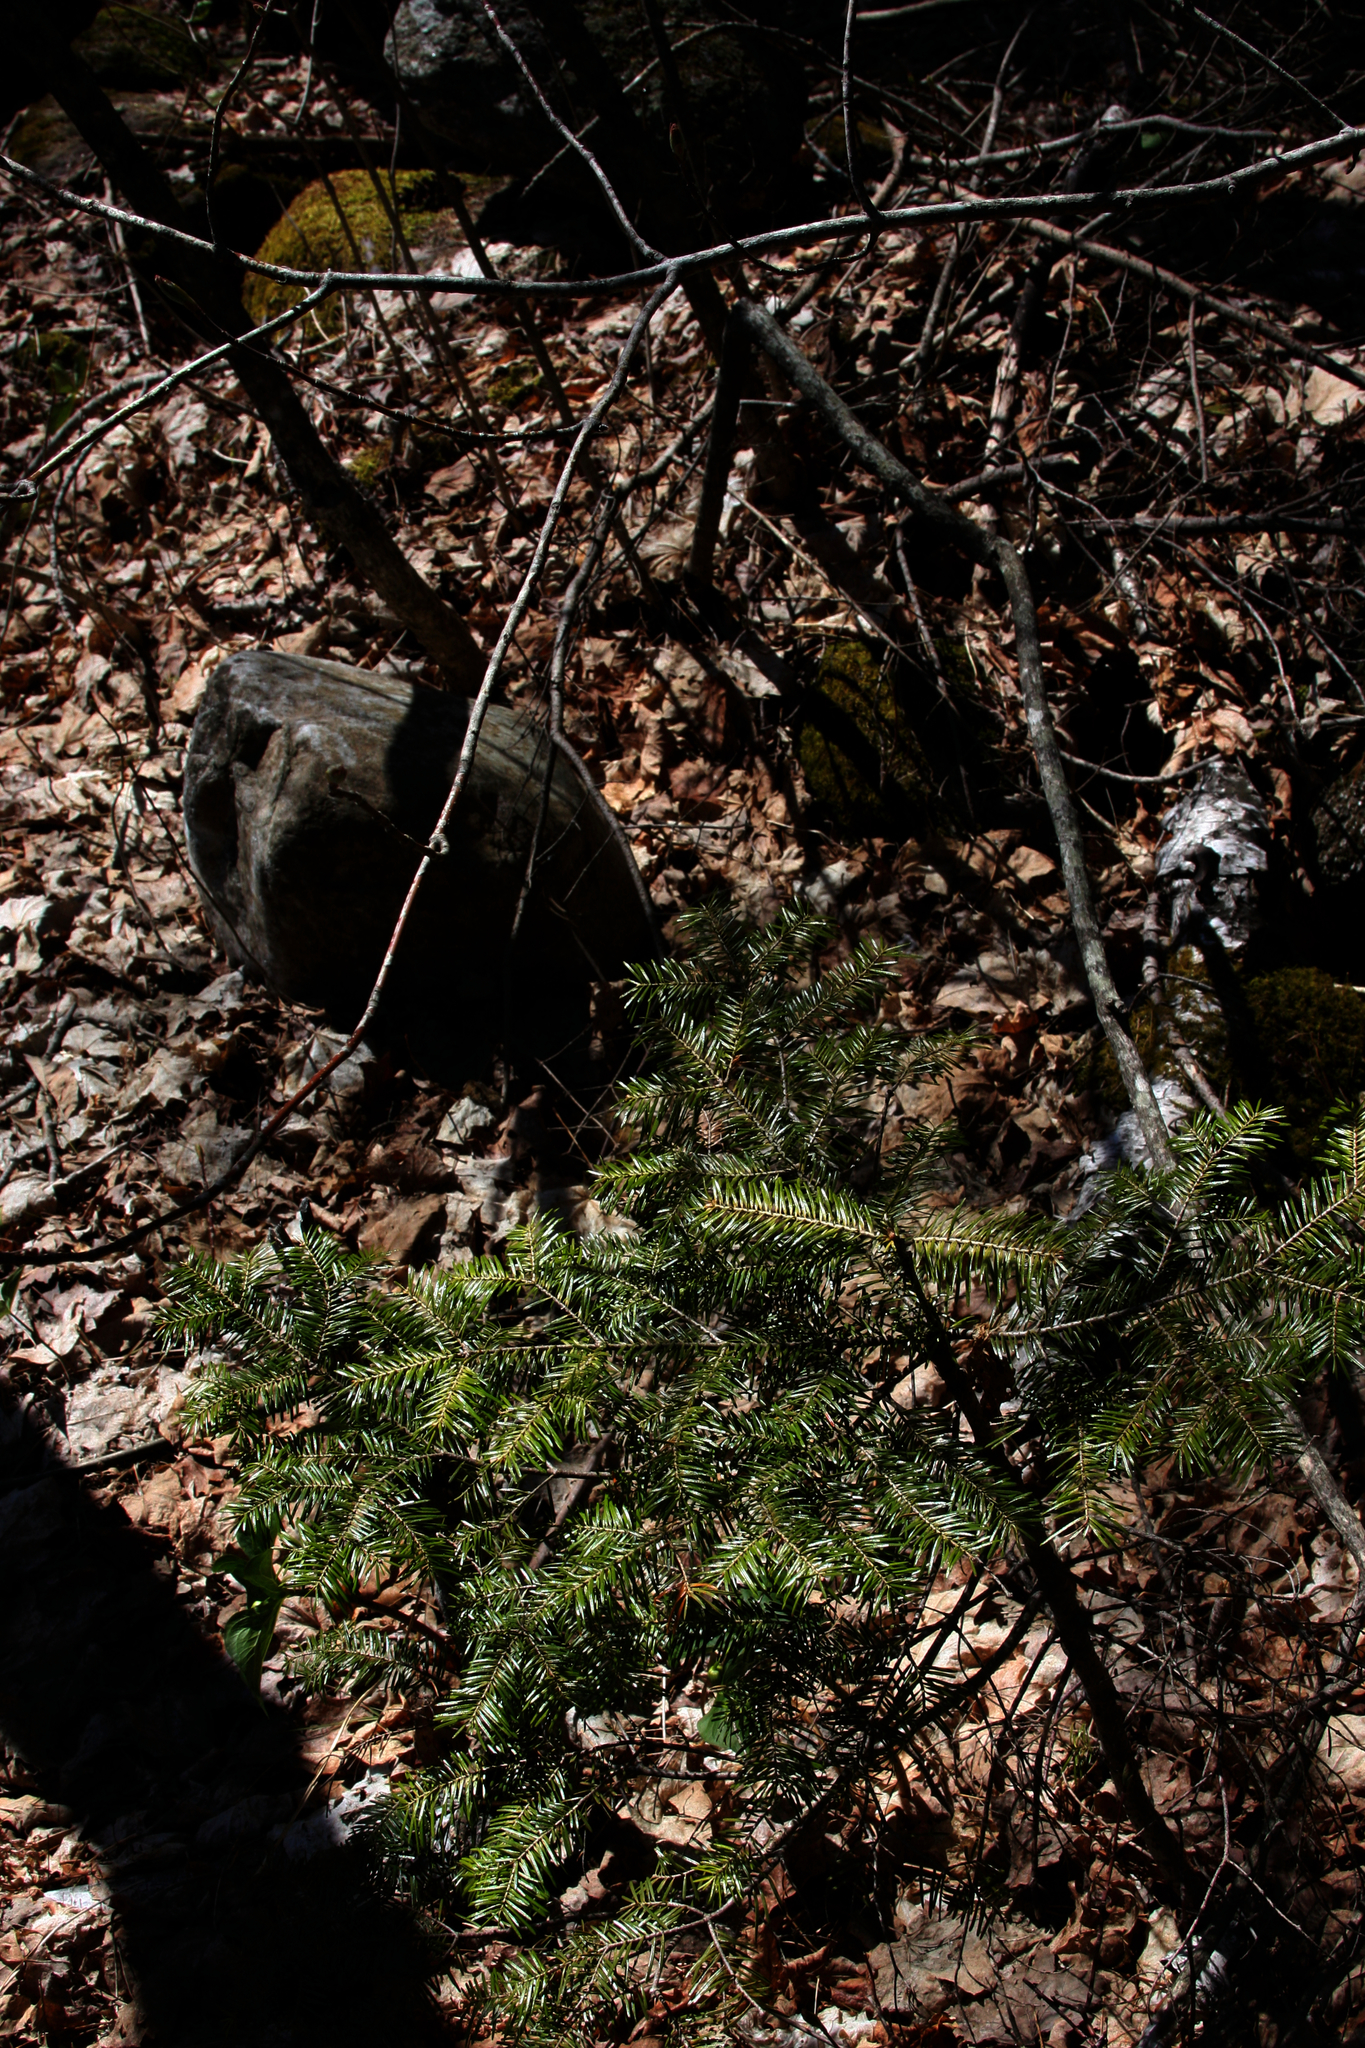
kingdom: Plantae
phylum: Tracheophyta
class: Pinopsida
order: Pinales
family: Pinaceae
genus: Abies
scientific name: Abies balsamea
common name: Balsam fir
